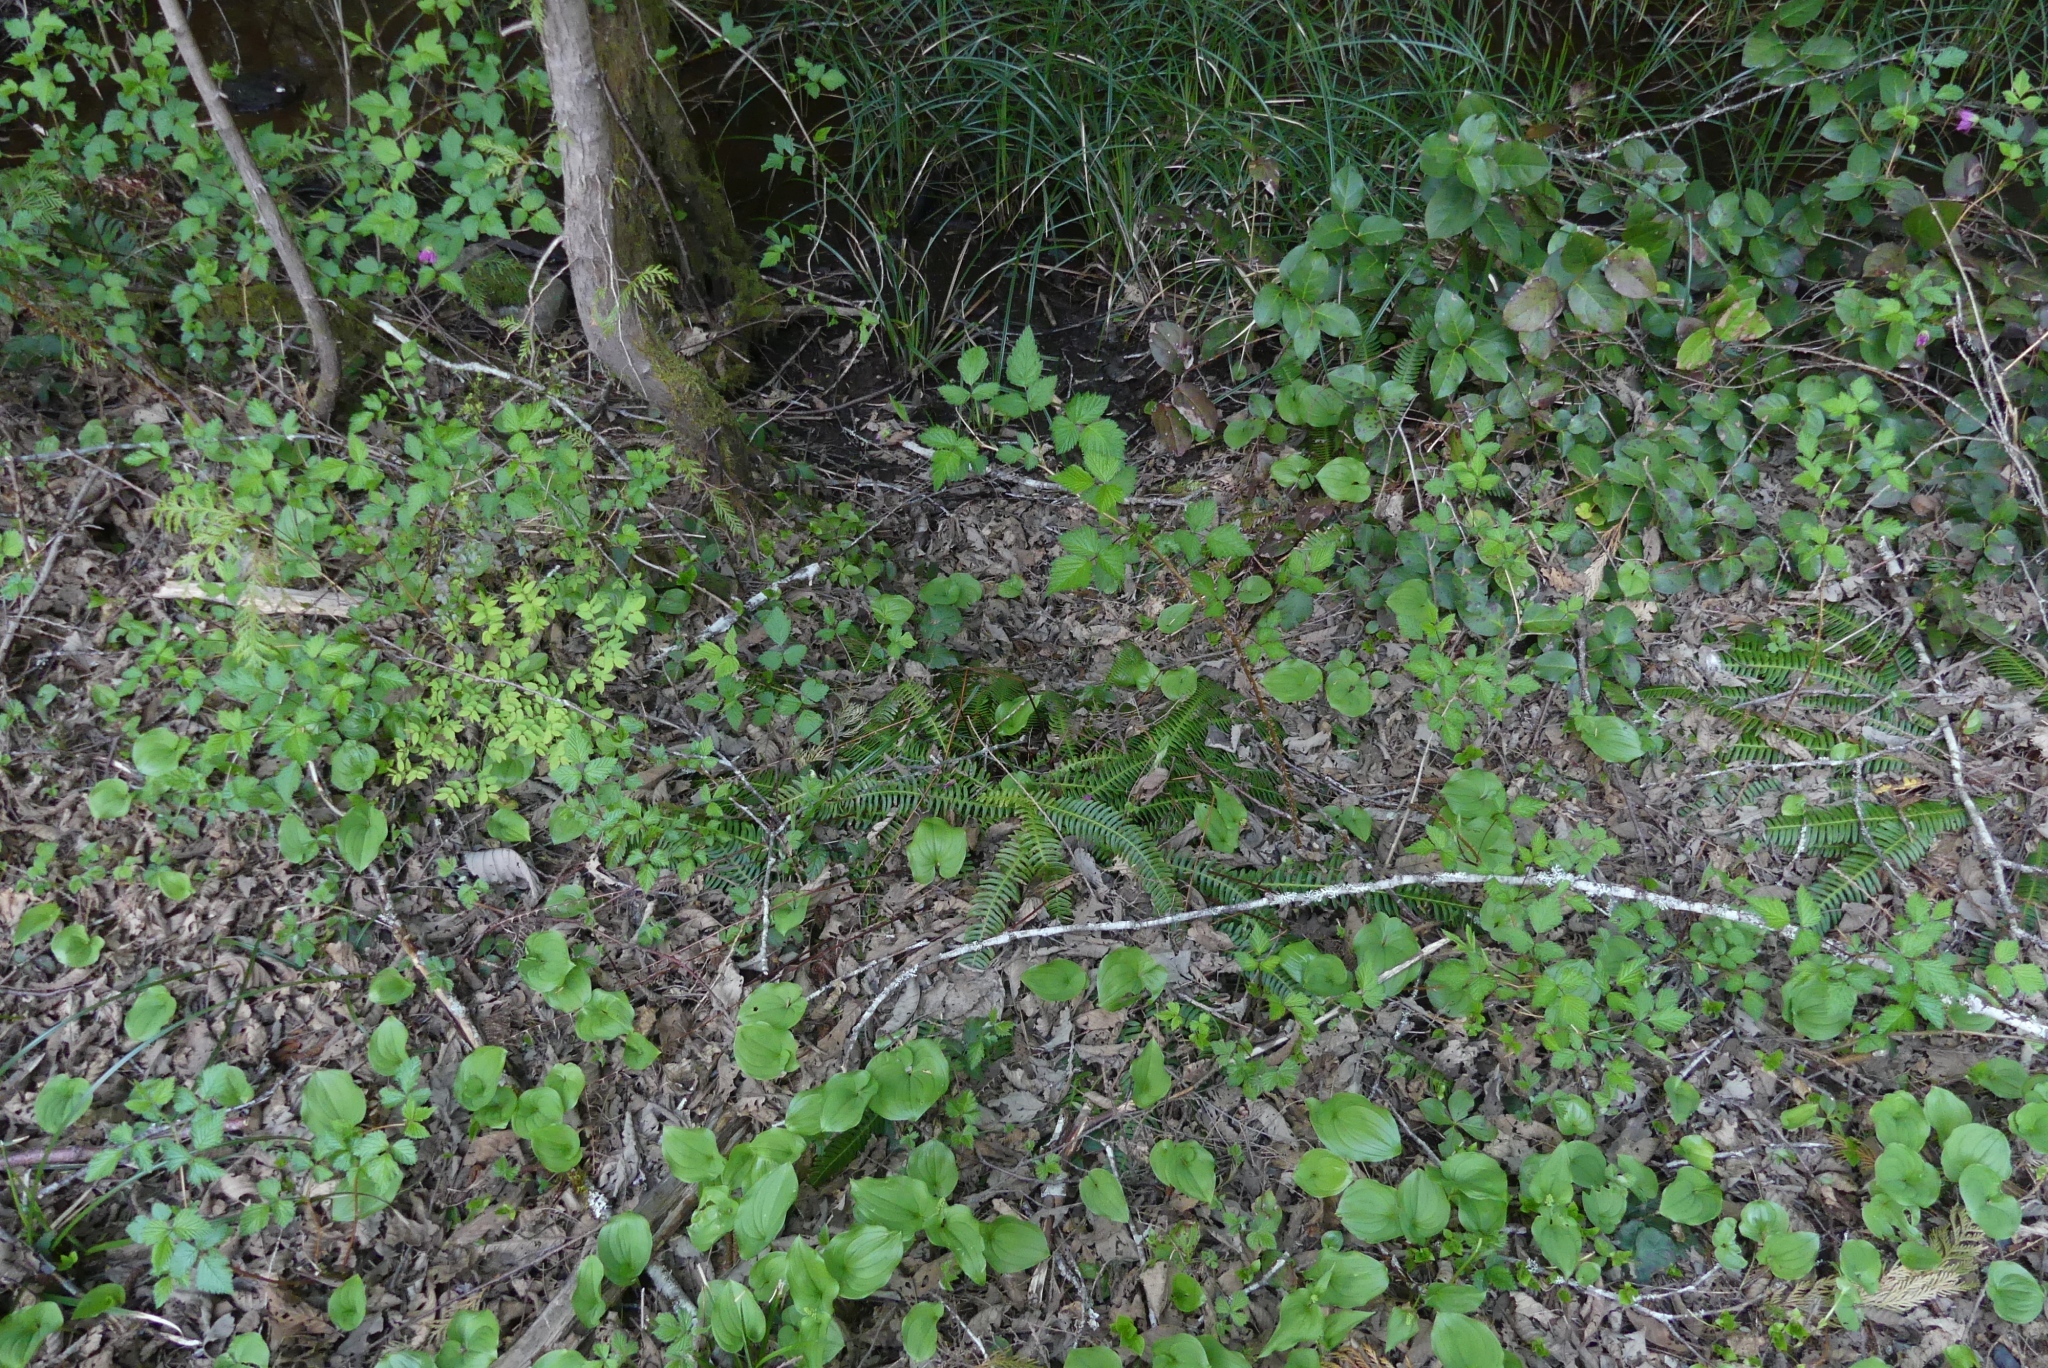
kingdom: Plantae
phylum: Tracheophyta
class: Polypodiopsida
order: Polypodiales
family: Blechnaceae
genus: Struthiopteris
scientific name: Struthiopteris spicant
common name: Deer fern
